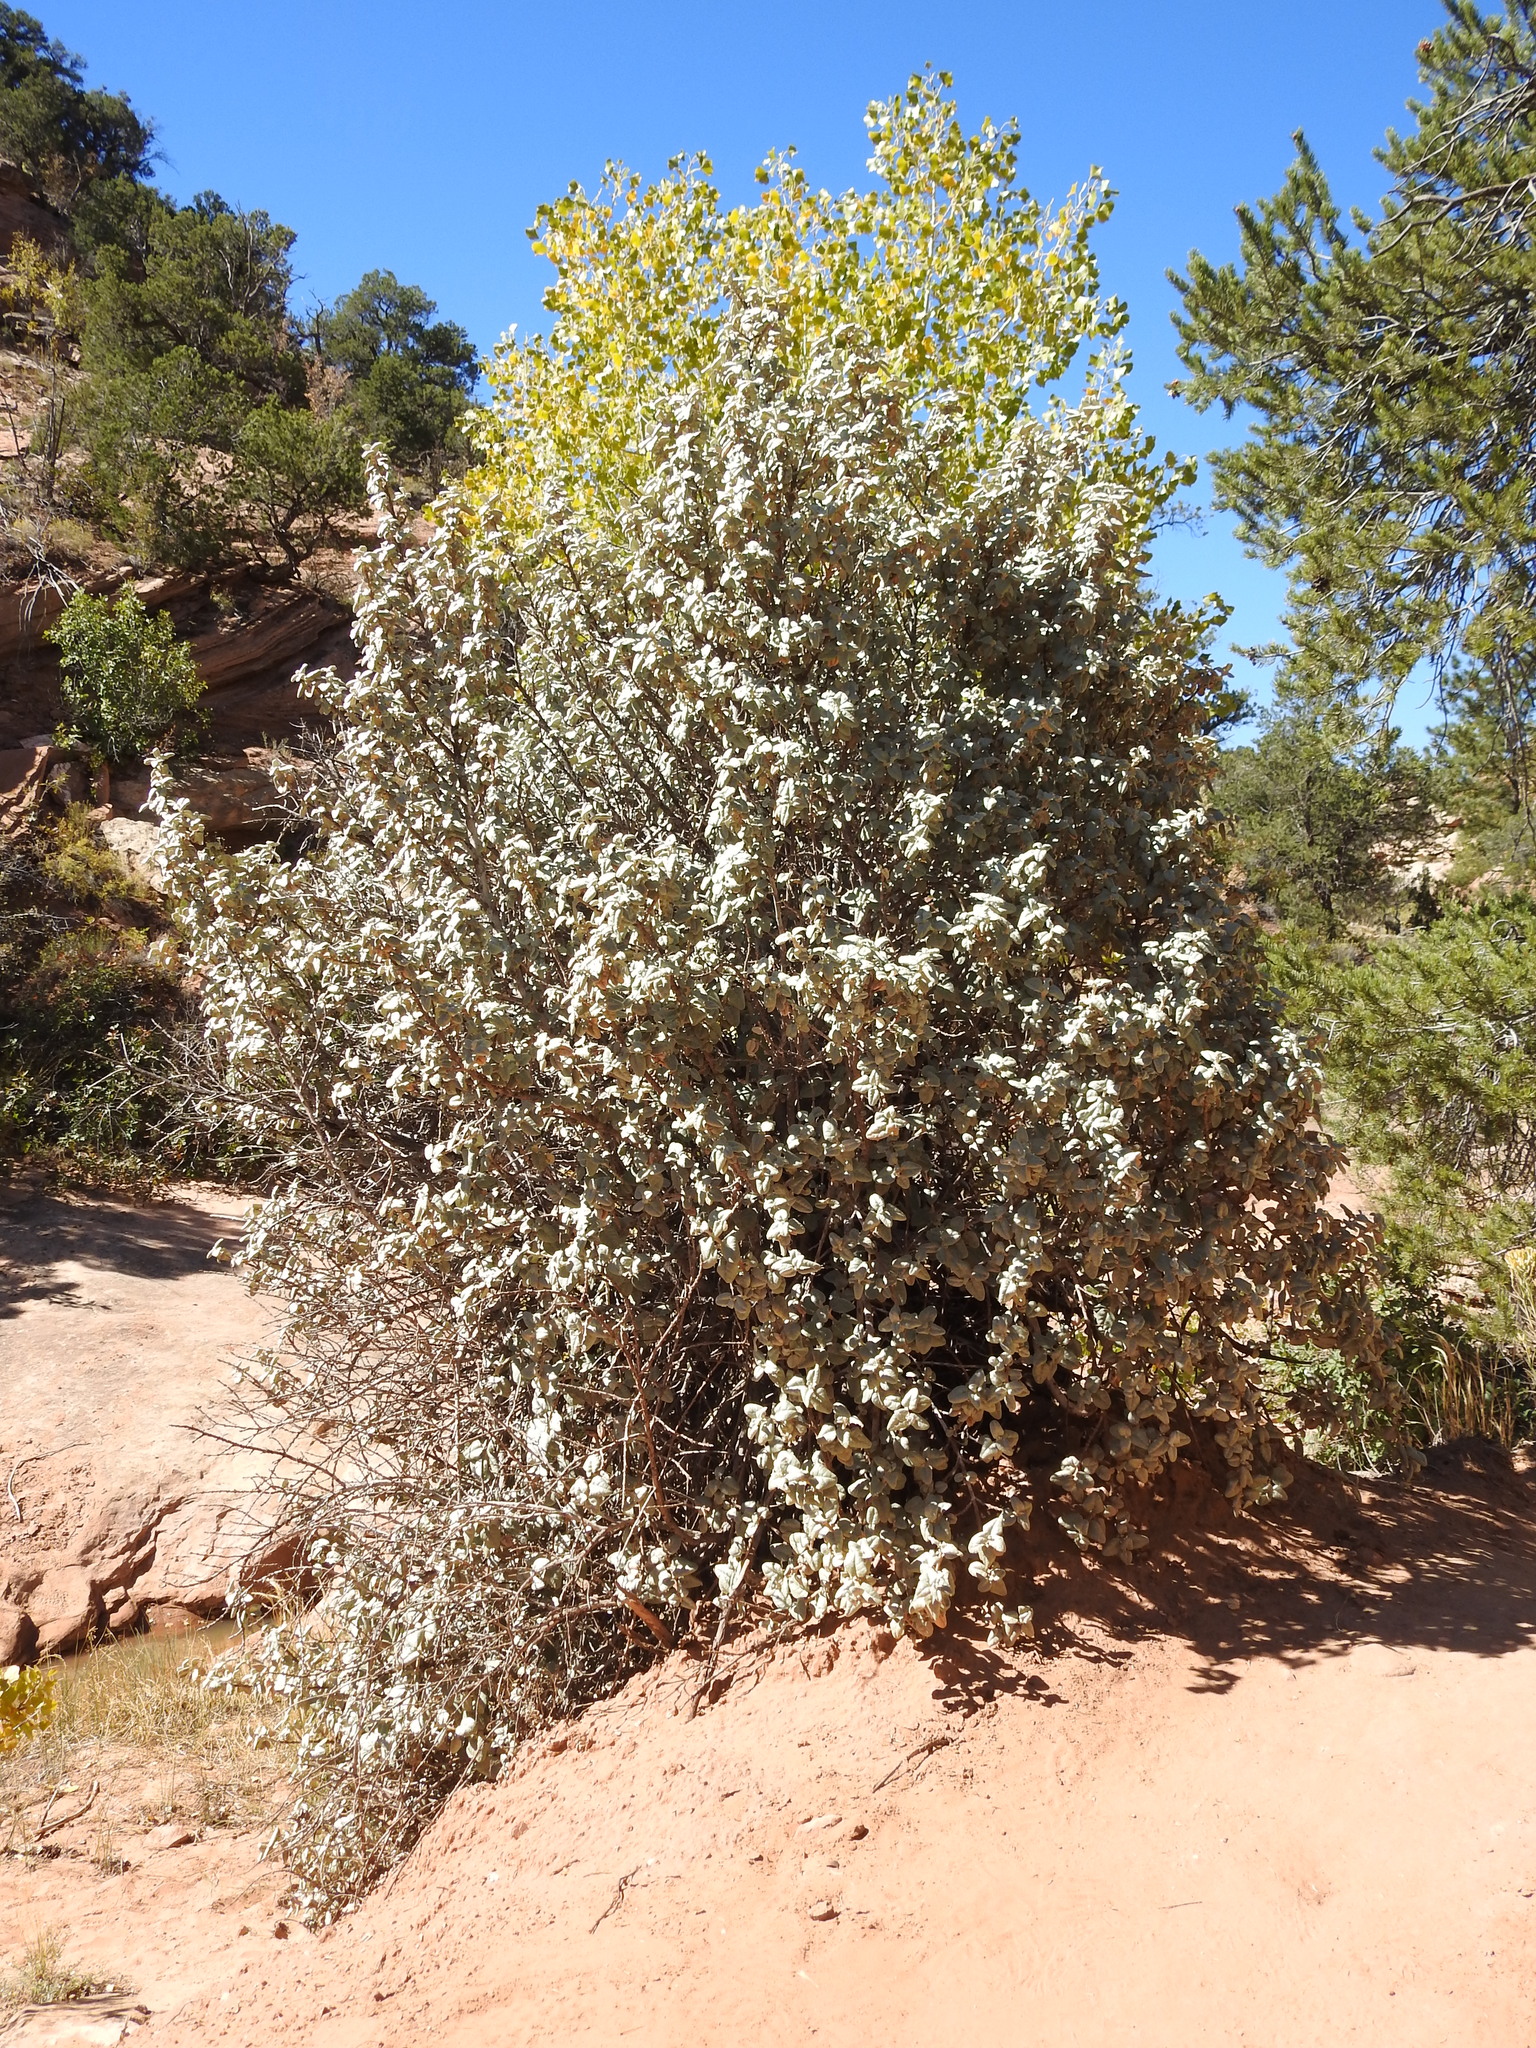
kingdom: Plantae
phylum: Tracheophyta
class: Magnoliopsida
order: Rosales
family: Elaeagnaceae
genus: Shepherdia
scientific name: Shepherdia rotundifolia
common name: Silverscale
